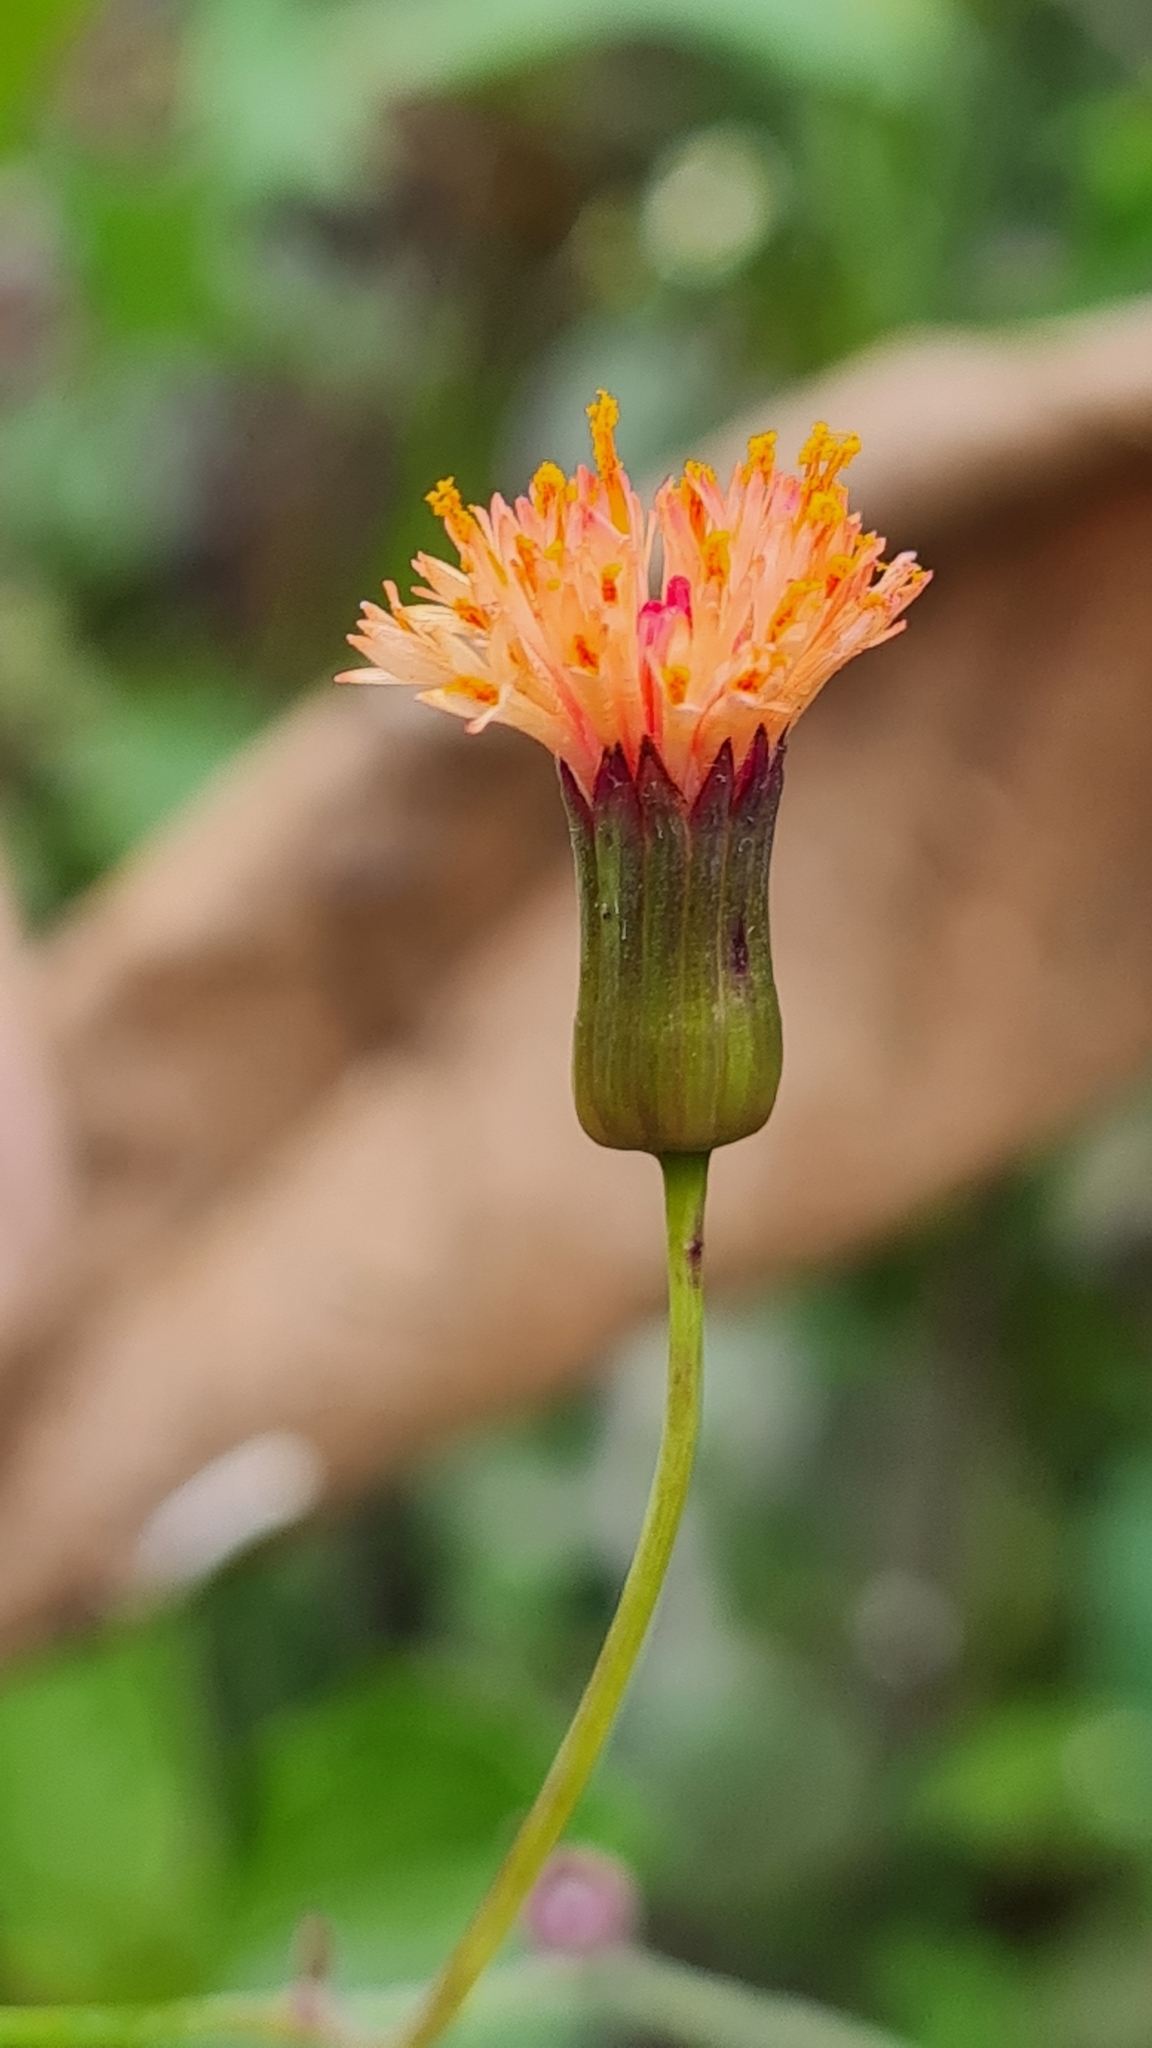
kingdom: Plantae
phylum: Tracheophyta
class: Magnoliopsida
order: Asterales
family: Asteraceae
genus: Emilia
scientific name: Emilia fosbergii
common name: Florida tasselflower
